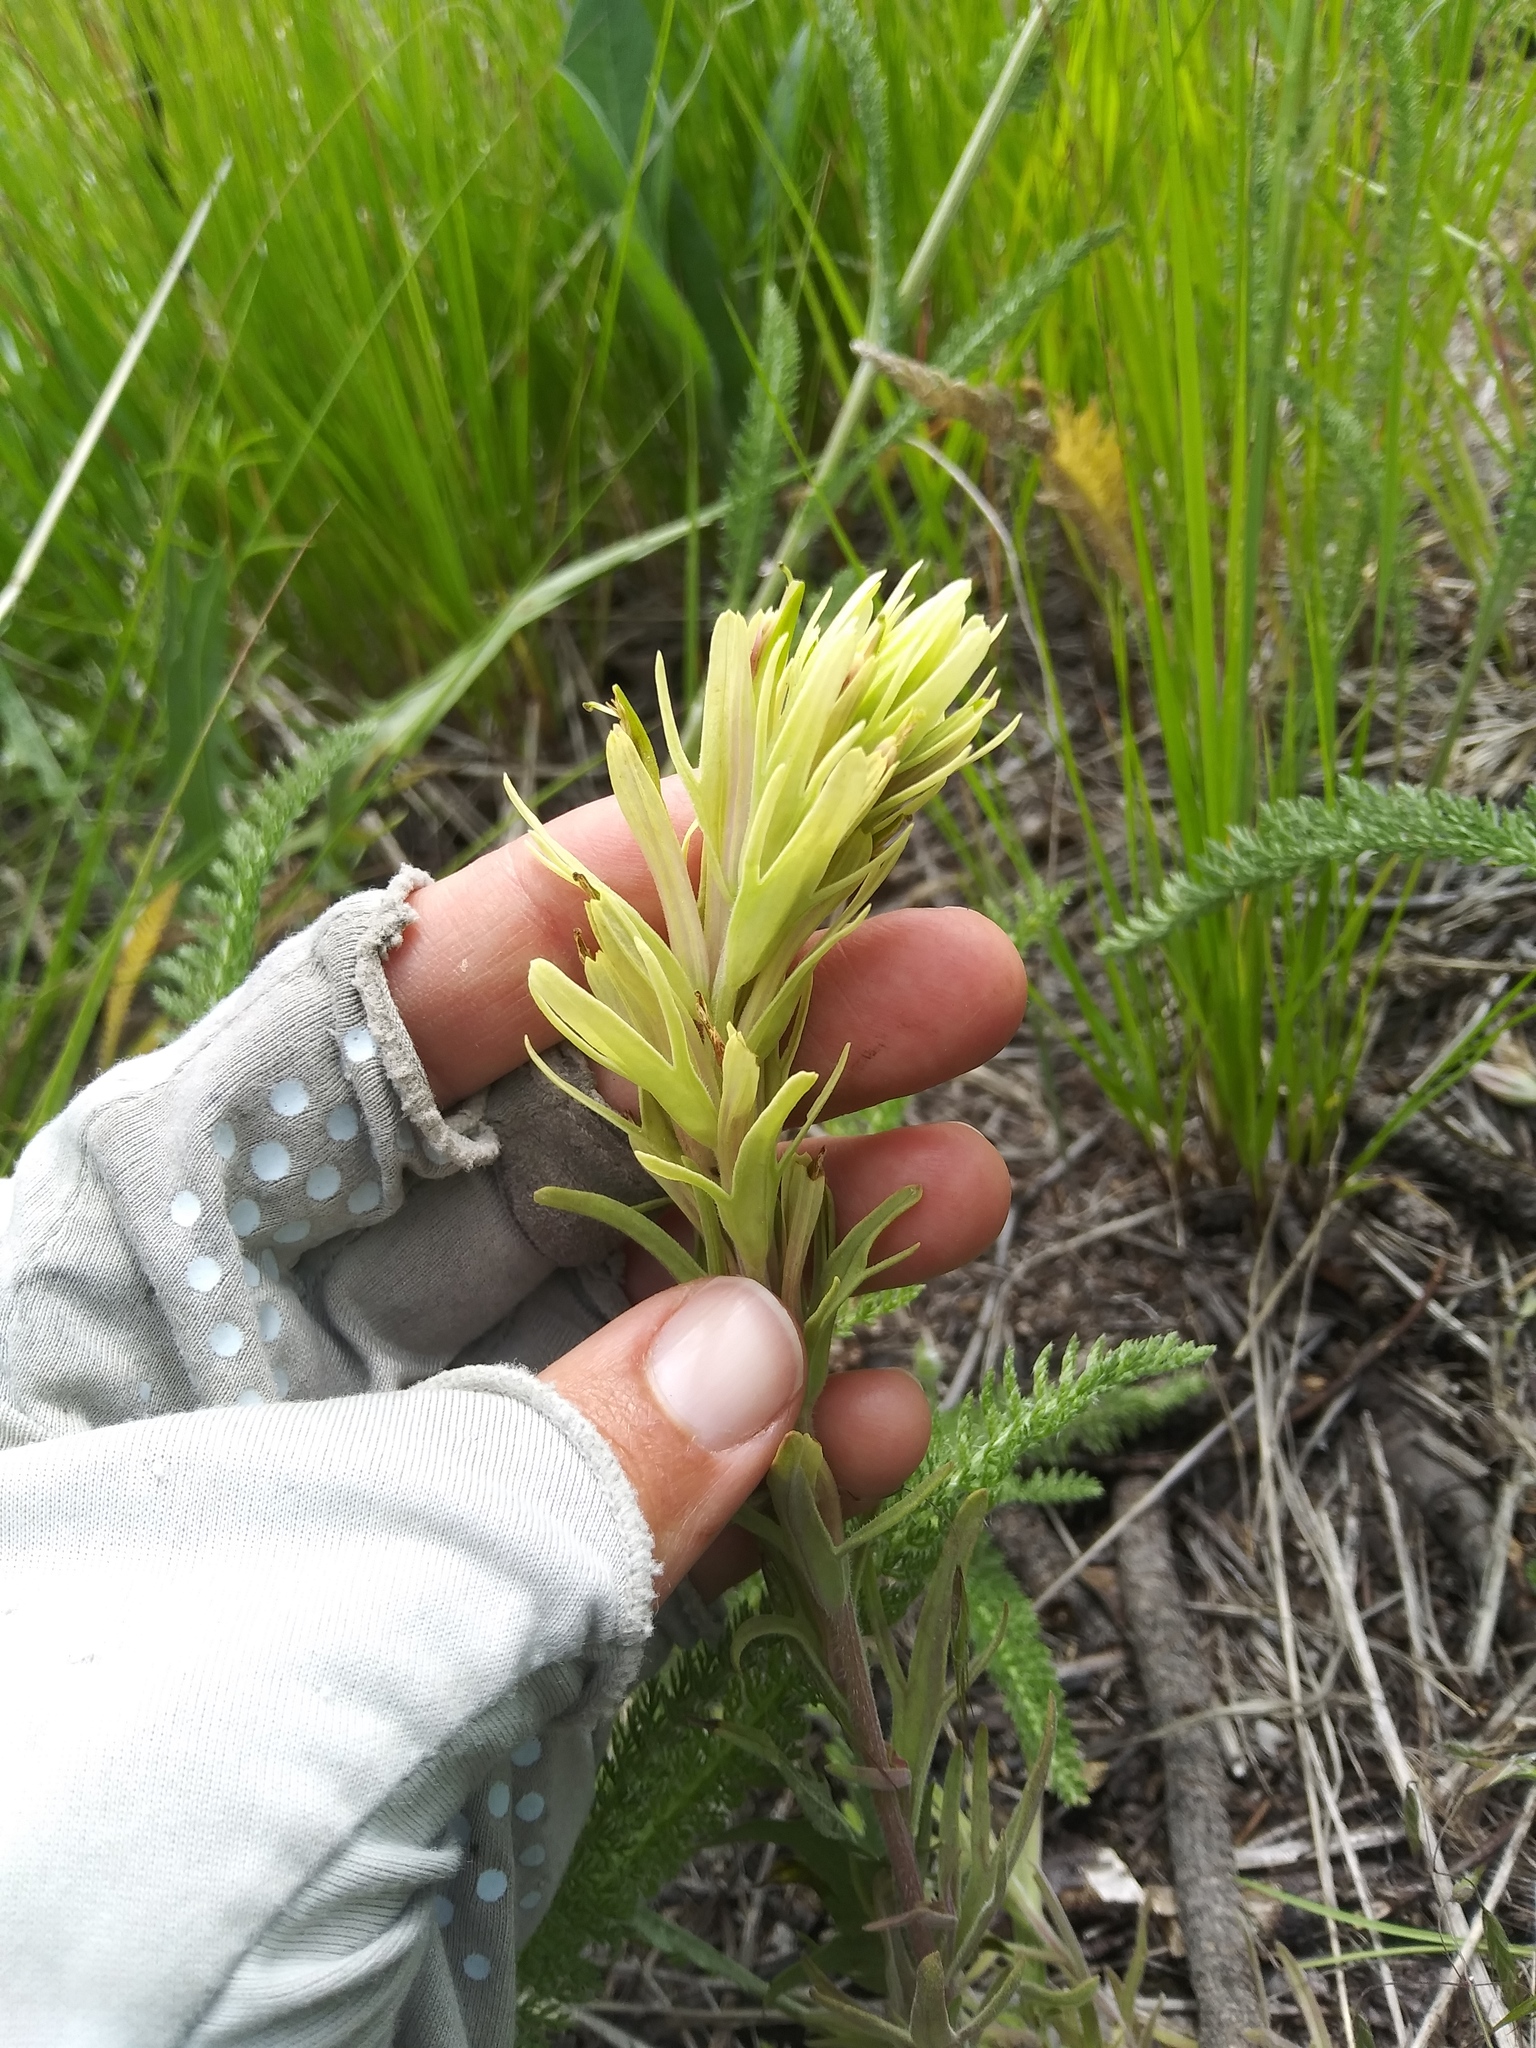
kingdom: Plantae
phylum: Tracheophyta
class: Magnoliopsida
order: Lamiales
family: Orobanchaceae
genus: Castilleja
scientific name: Castilleja thompsonii
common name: Thompson's paintbrush
